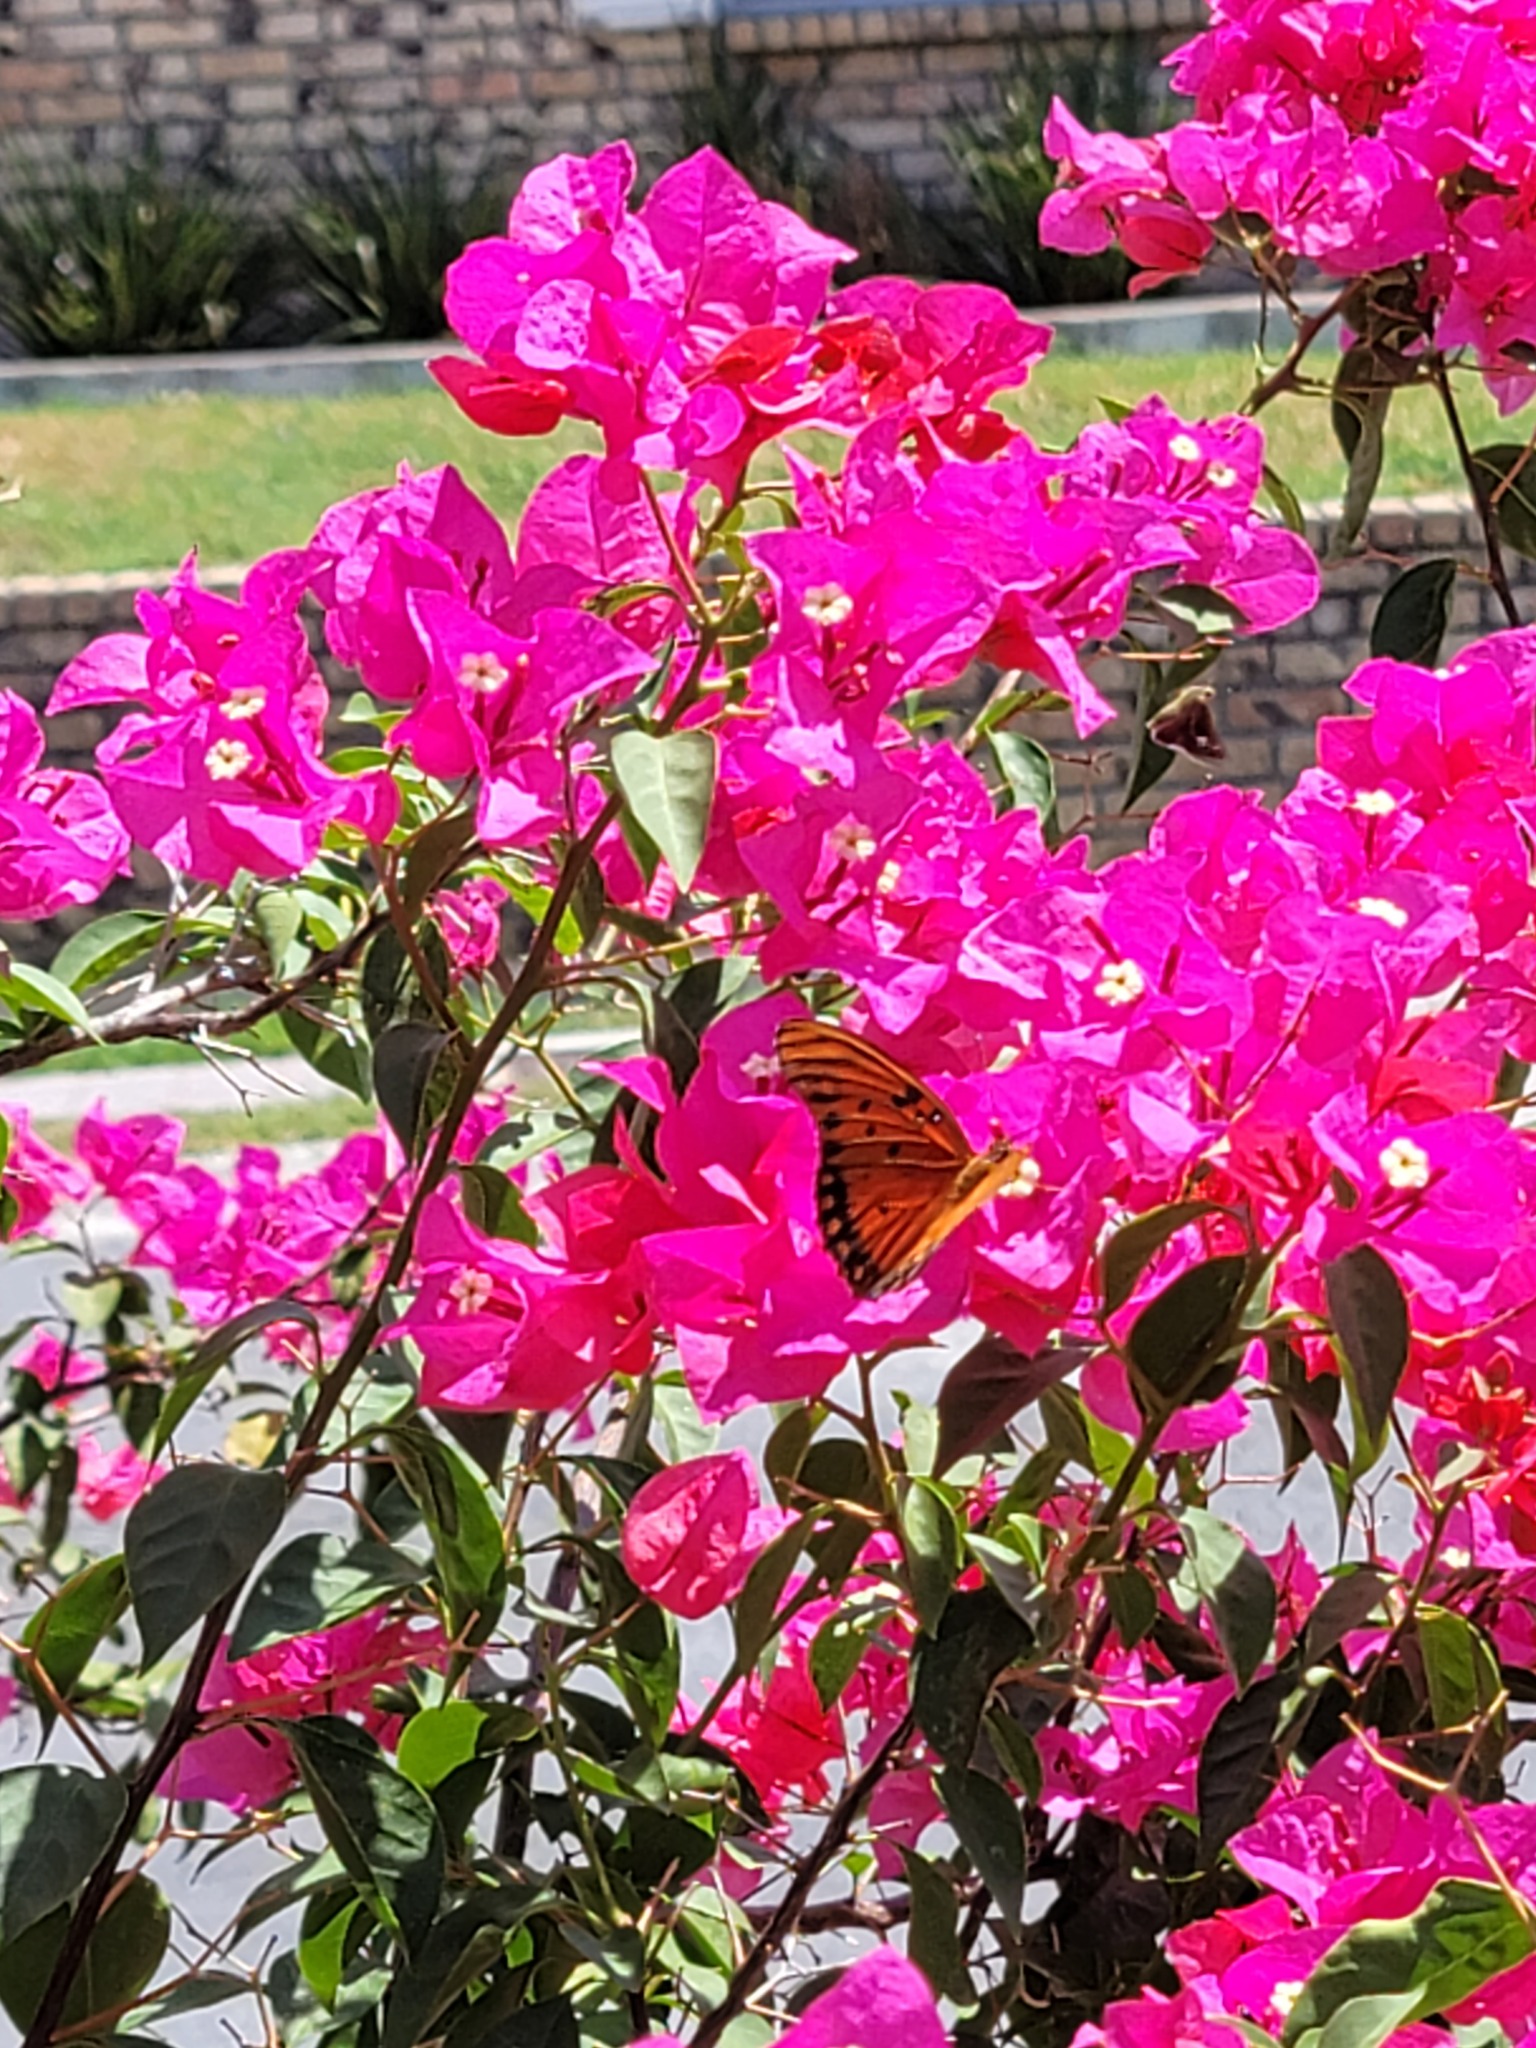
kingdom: Animalia
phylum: Arthropoda
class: Insecta
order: Lepidoptera
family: Nymphalidae
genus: Dione
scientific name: Dione vanillae
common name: Gulf fritillary
